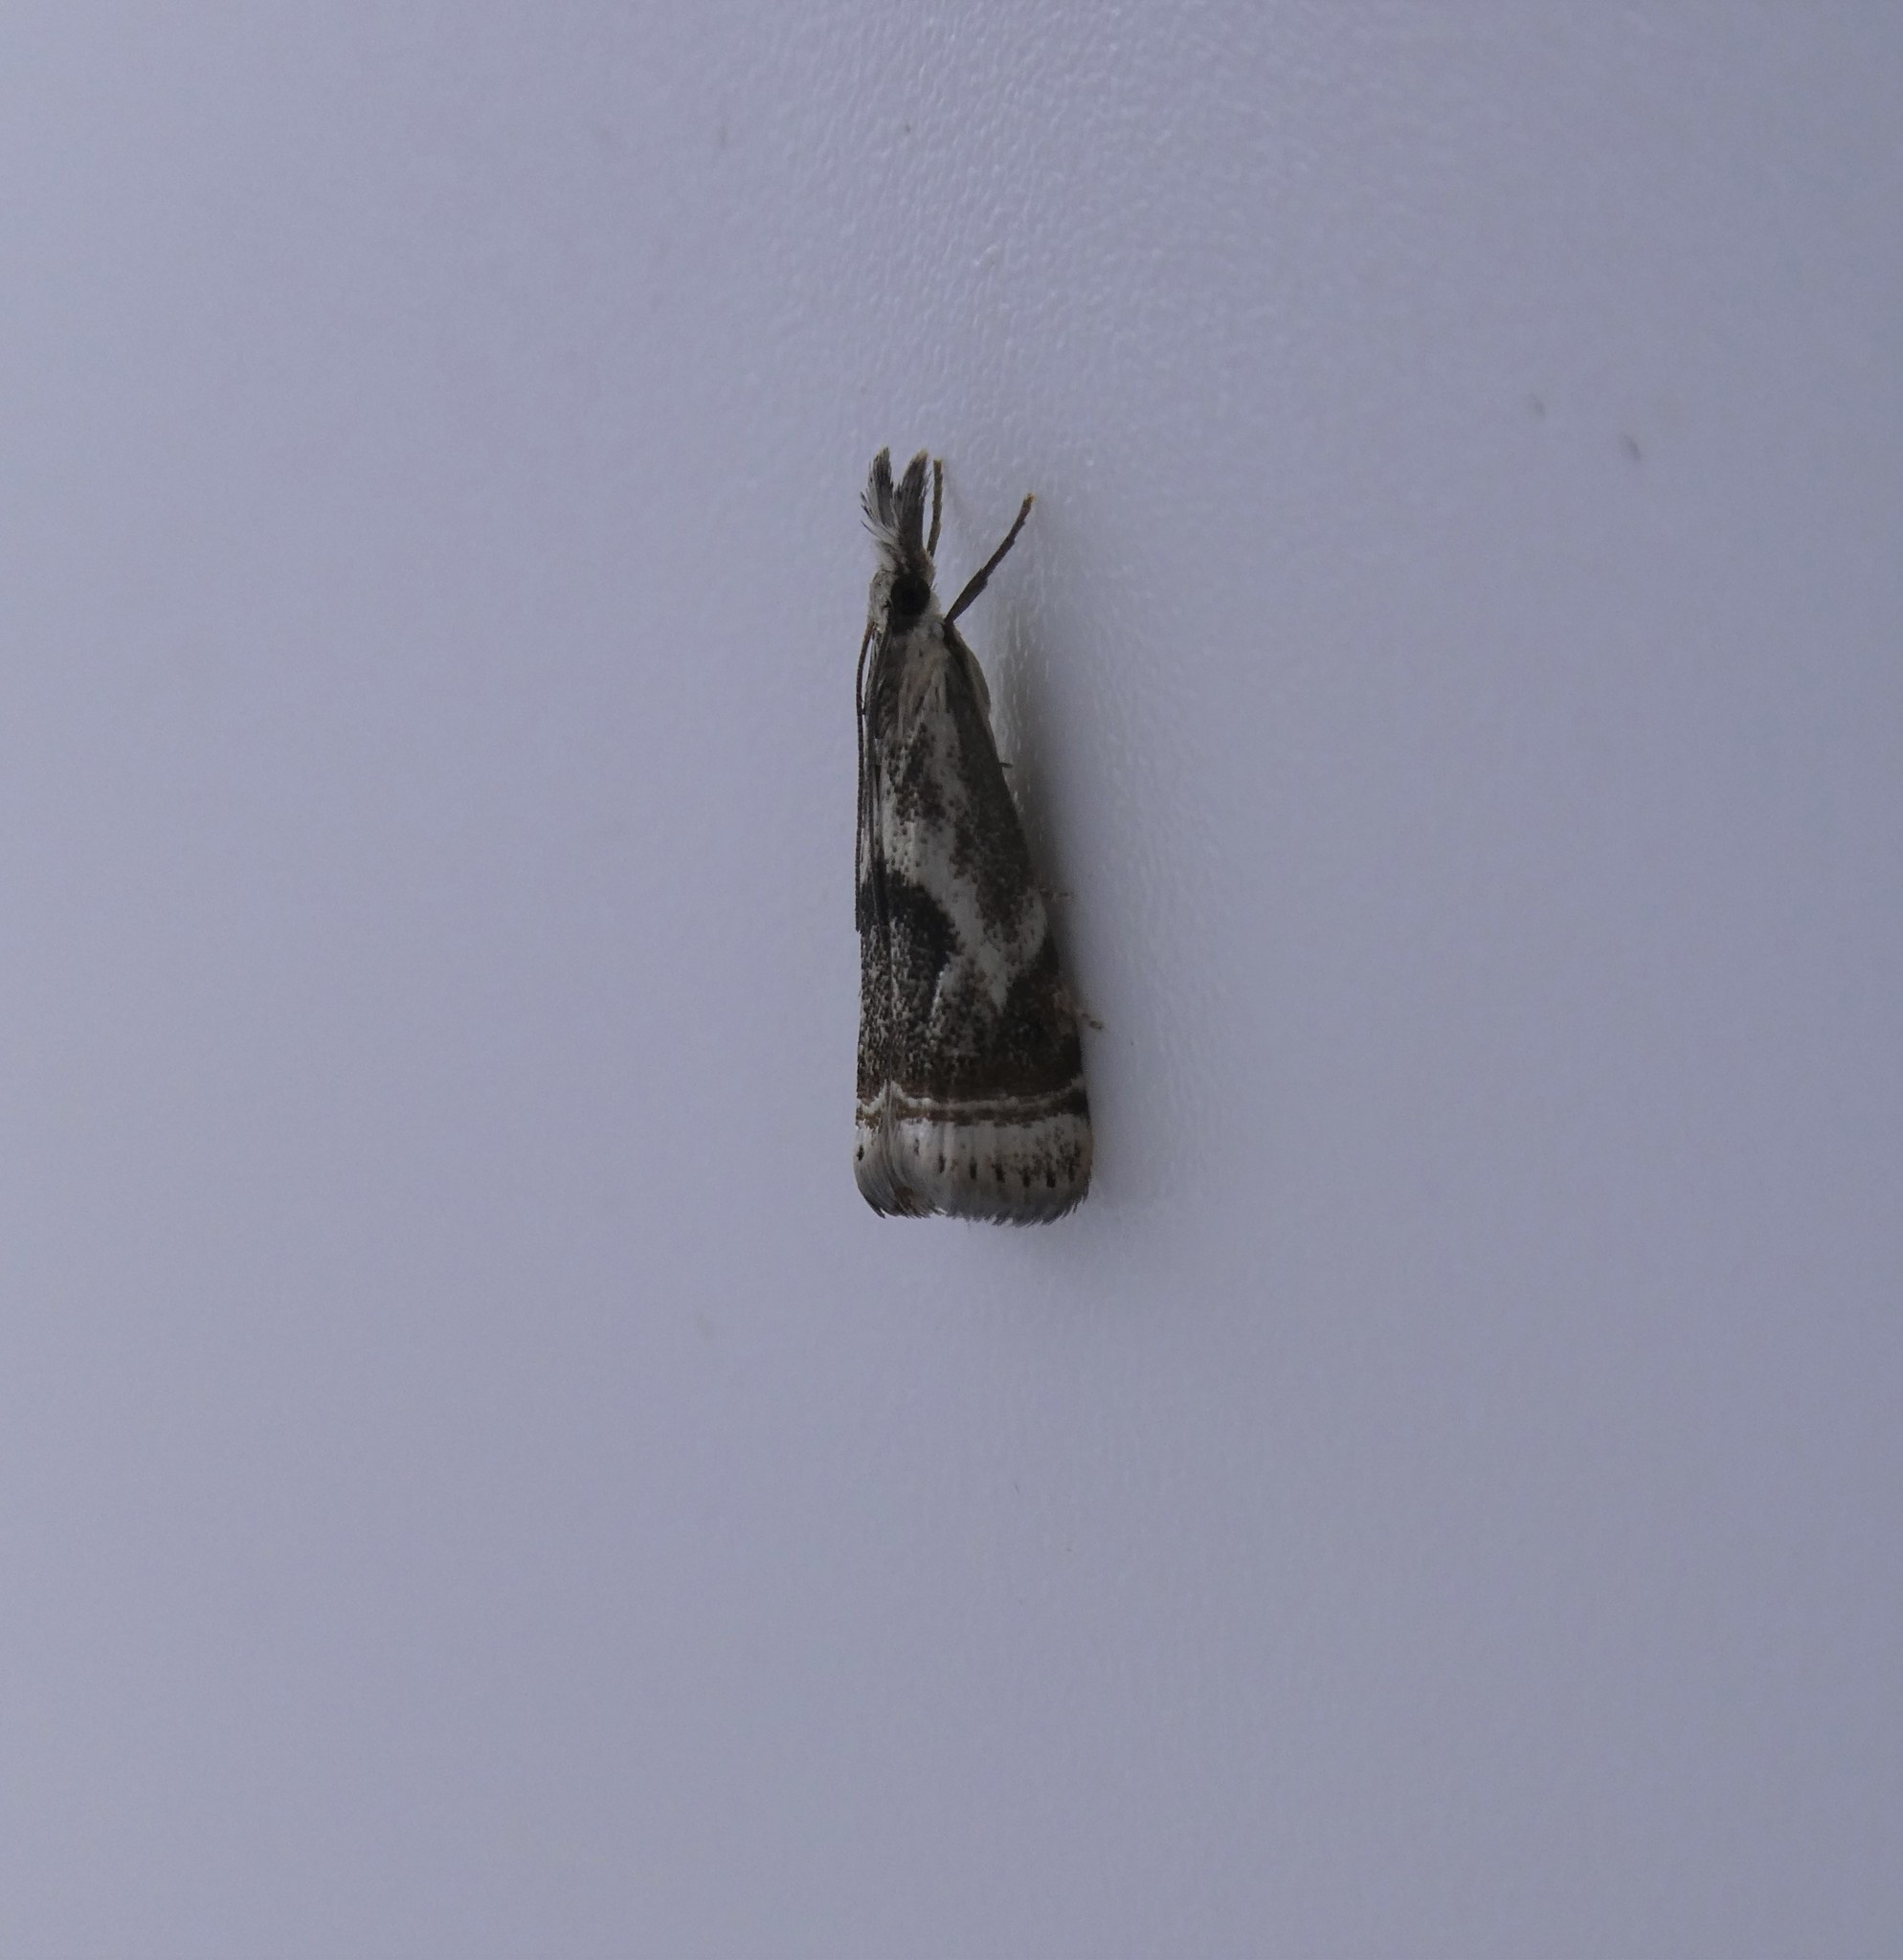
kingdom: Animalia
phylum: Arthropoda
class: Insecta
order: Lepidoptera
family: Crambidae
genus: Microcrambus
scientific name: Microcrambus elegans
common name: Elegant grass-veneer
